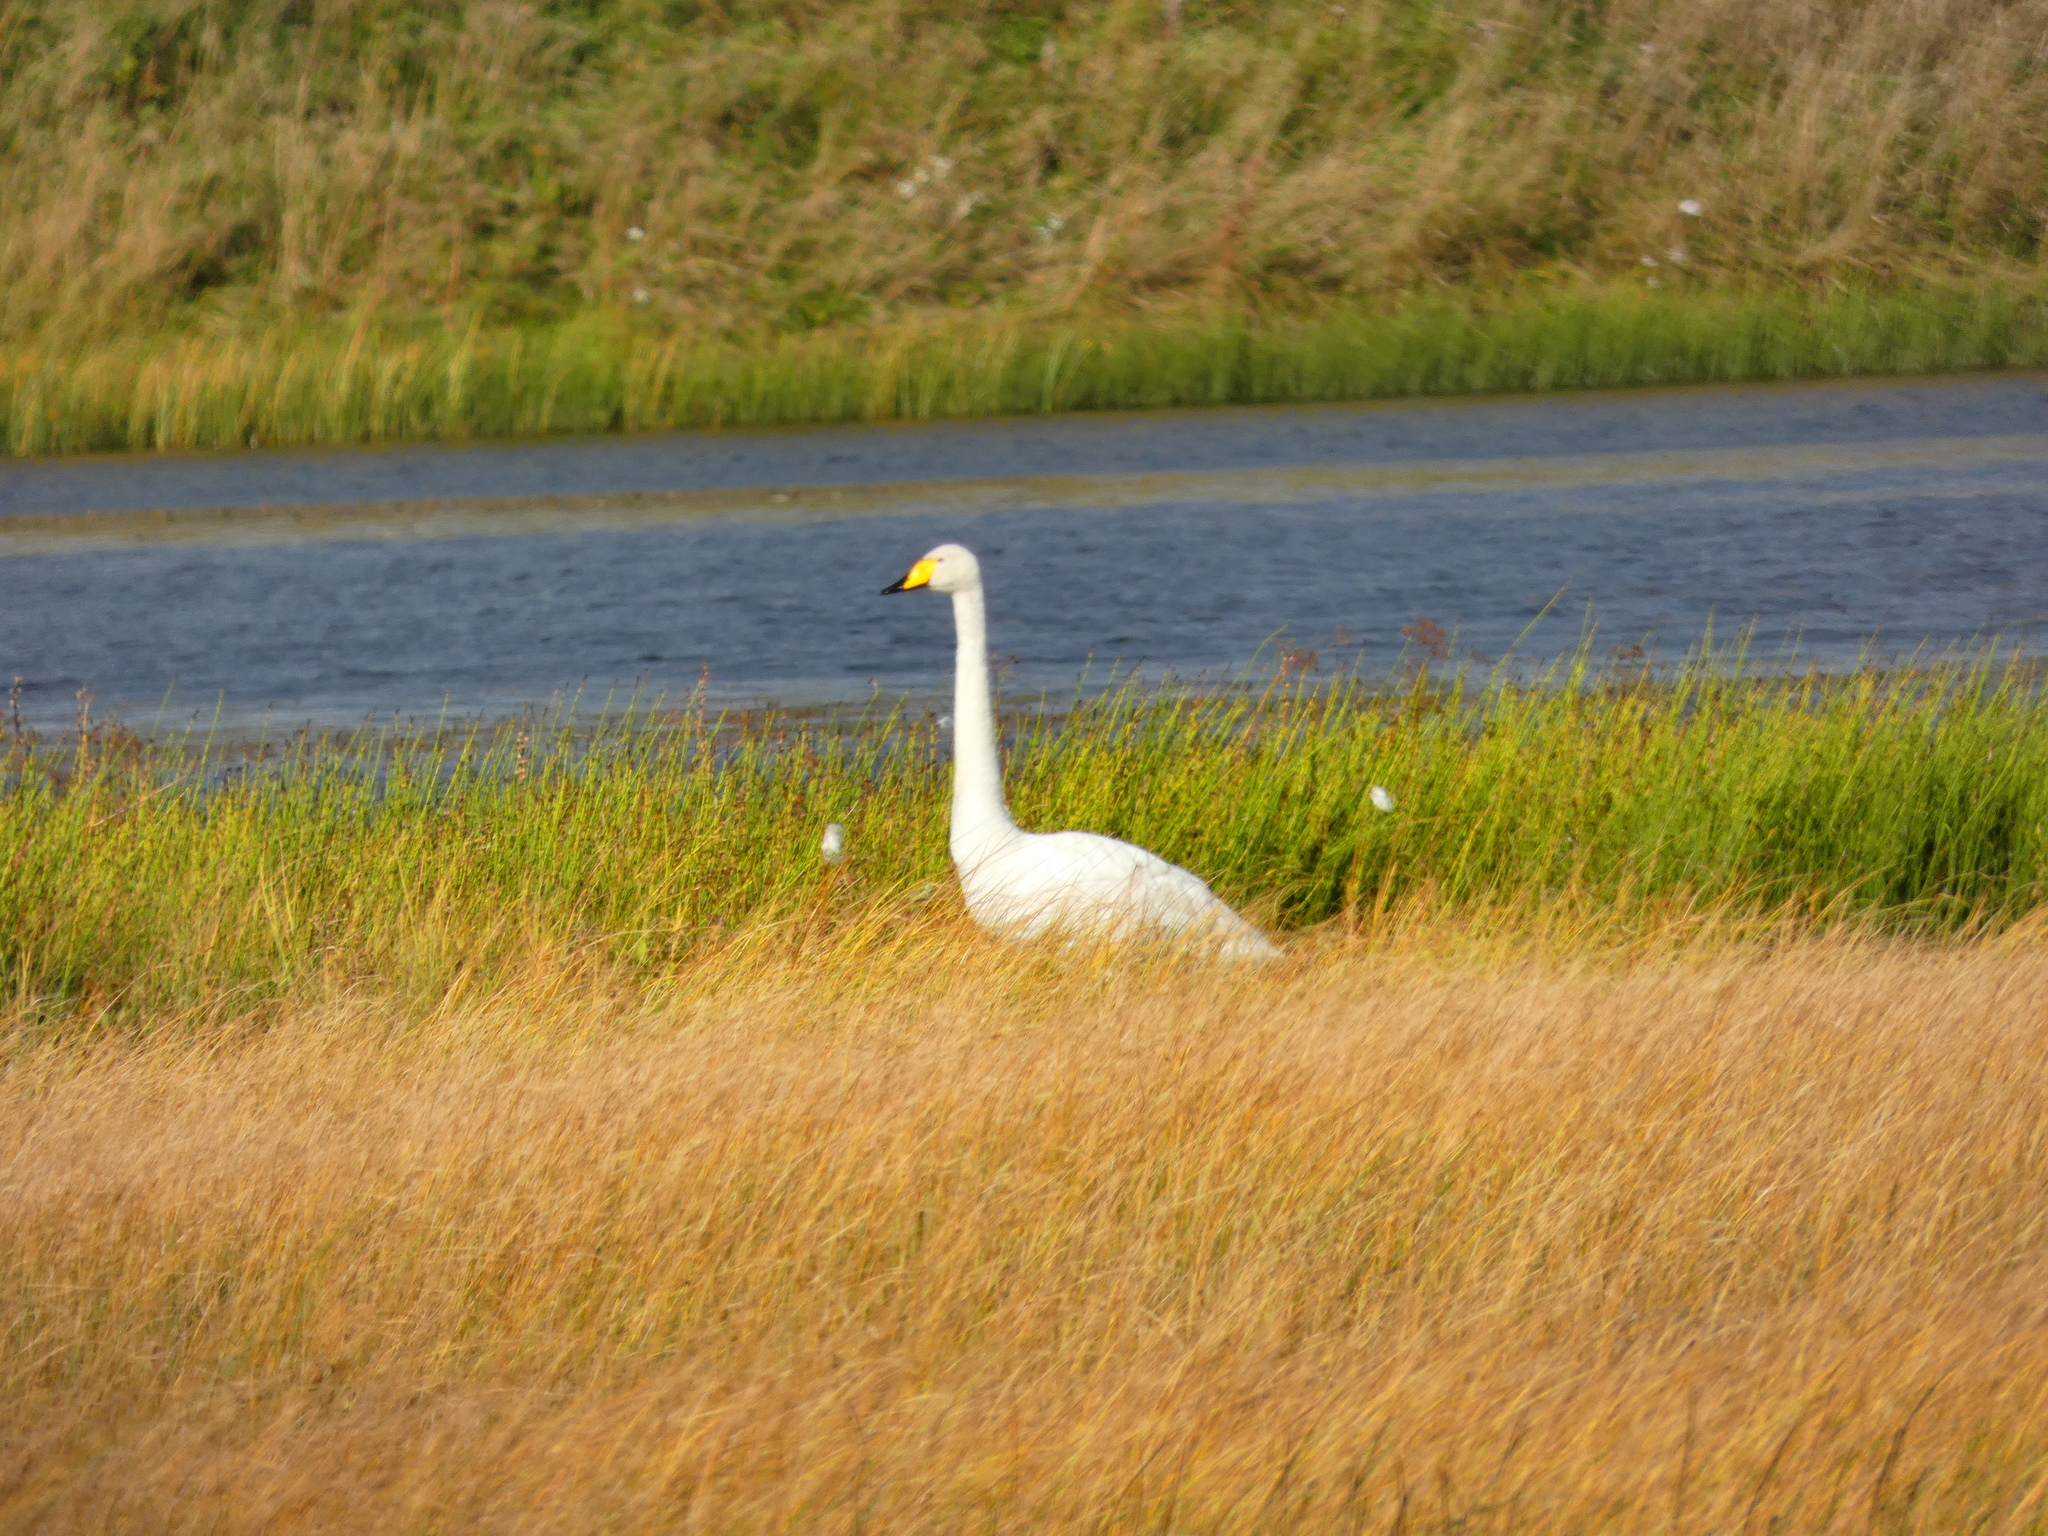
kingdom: Animalia
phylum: Chordata
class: Aves
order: Anseriformes
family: Anatidae
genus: Cygnus
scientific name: Cygnus cygnus
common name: Whooper swan
